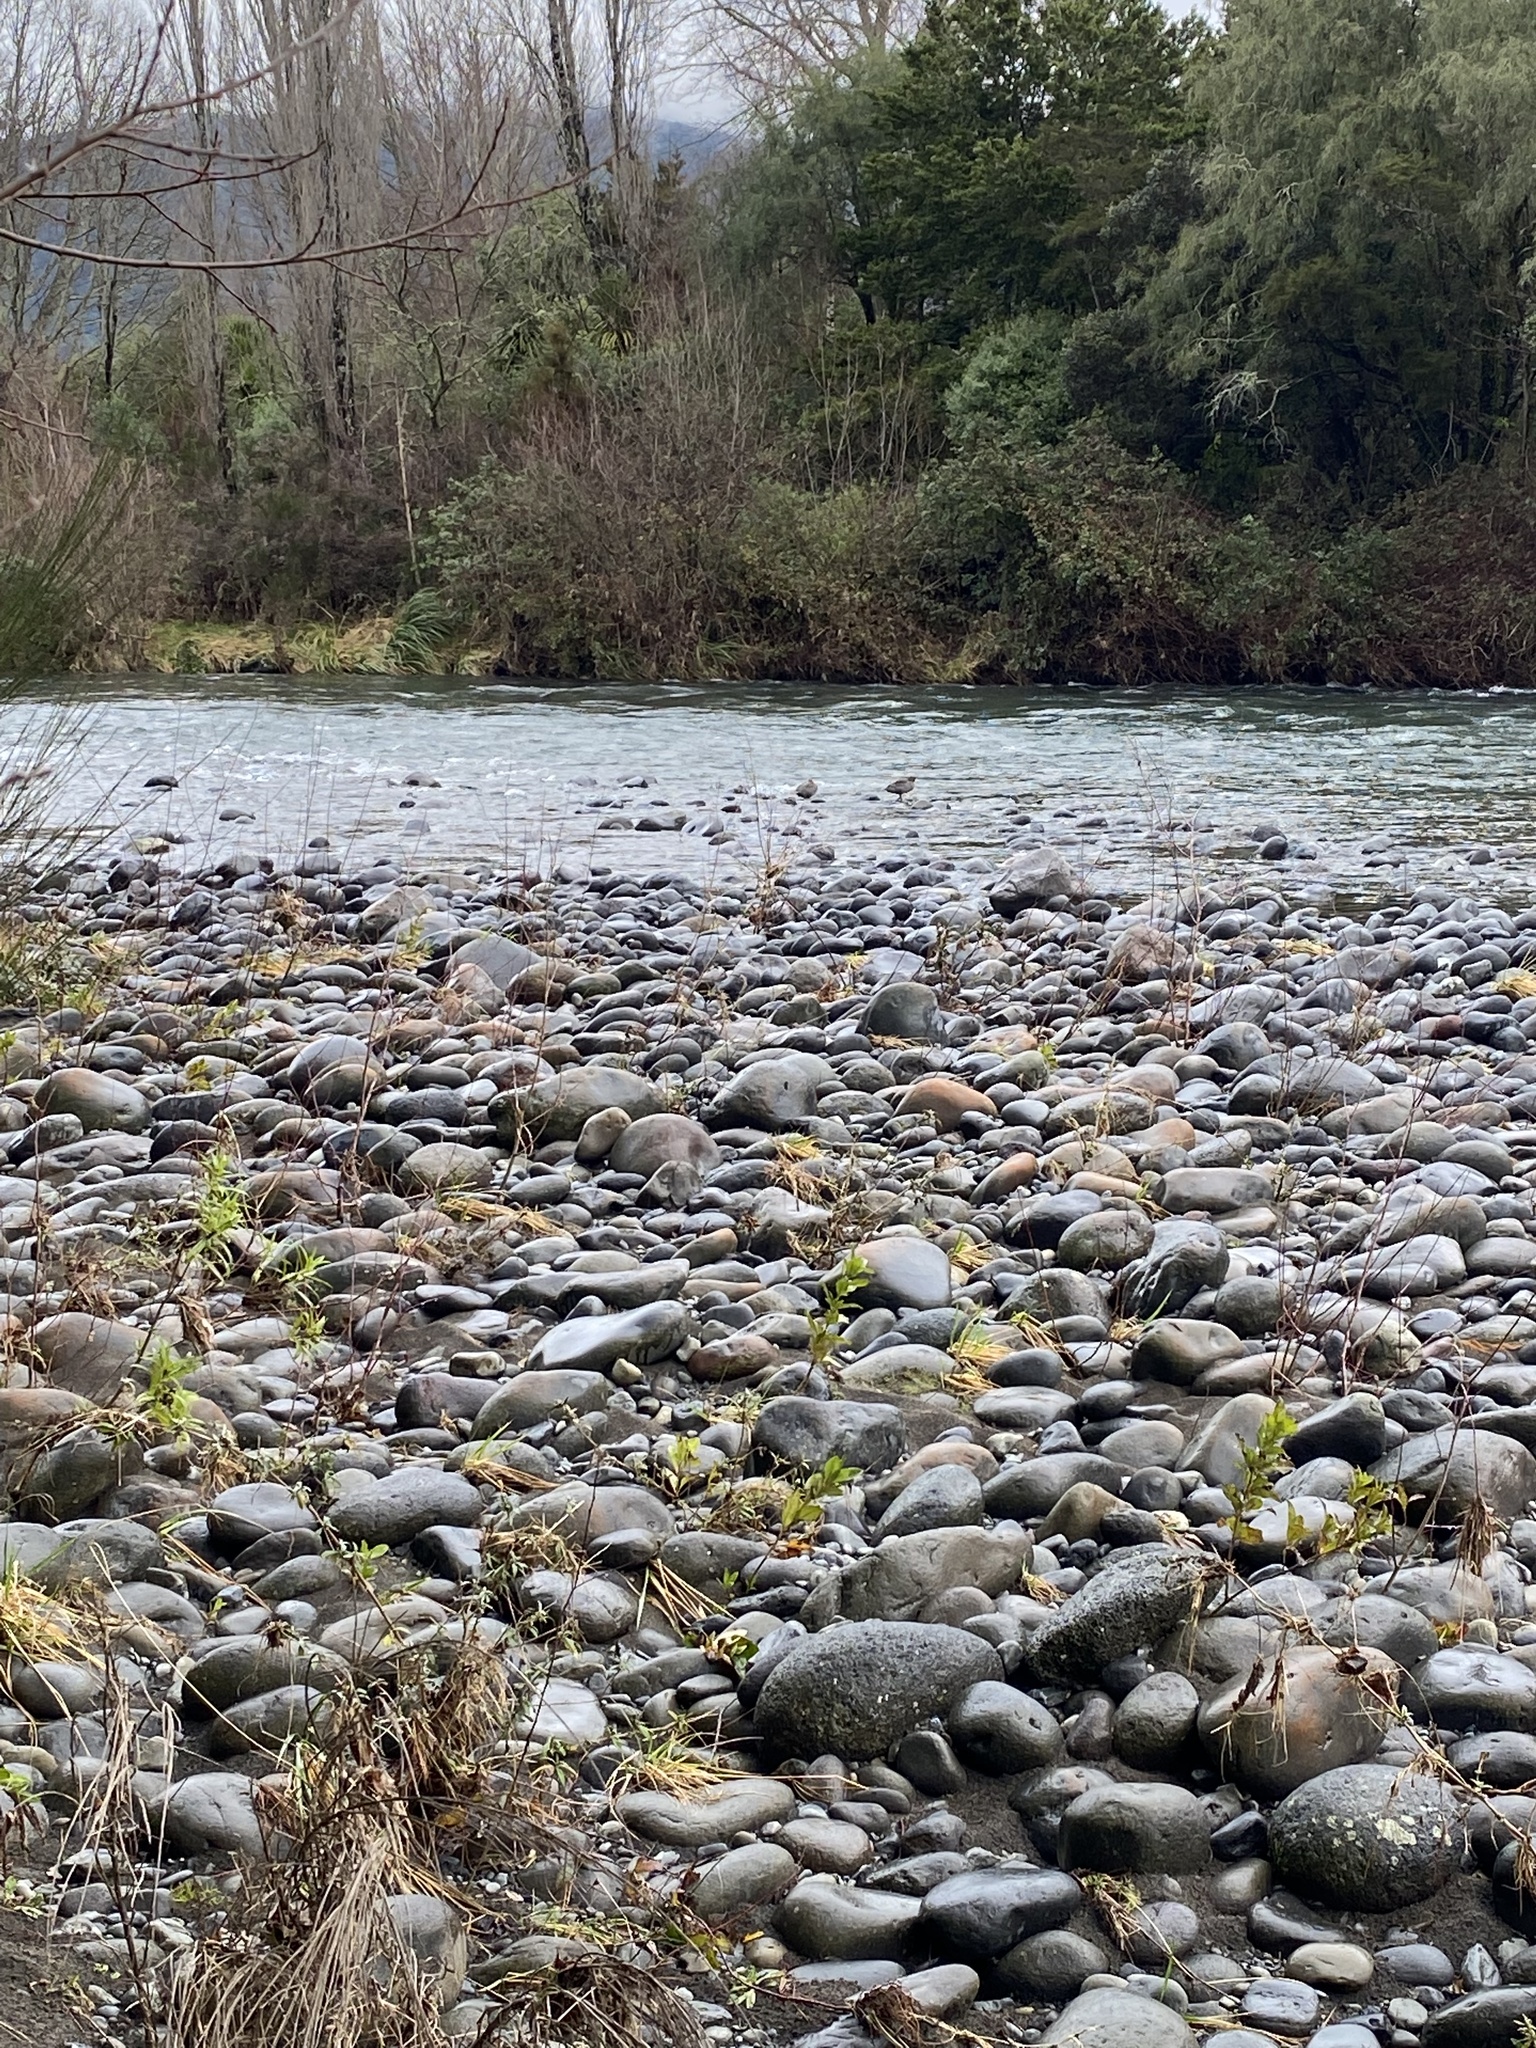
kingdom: Animalia
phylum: Chordata
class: Aves
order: Anseriformes
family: Anatidae
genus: Hymenolaimus
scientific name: Hymenolaimus malacorhynchos
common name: Blue duck
